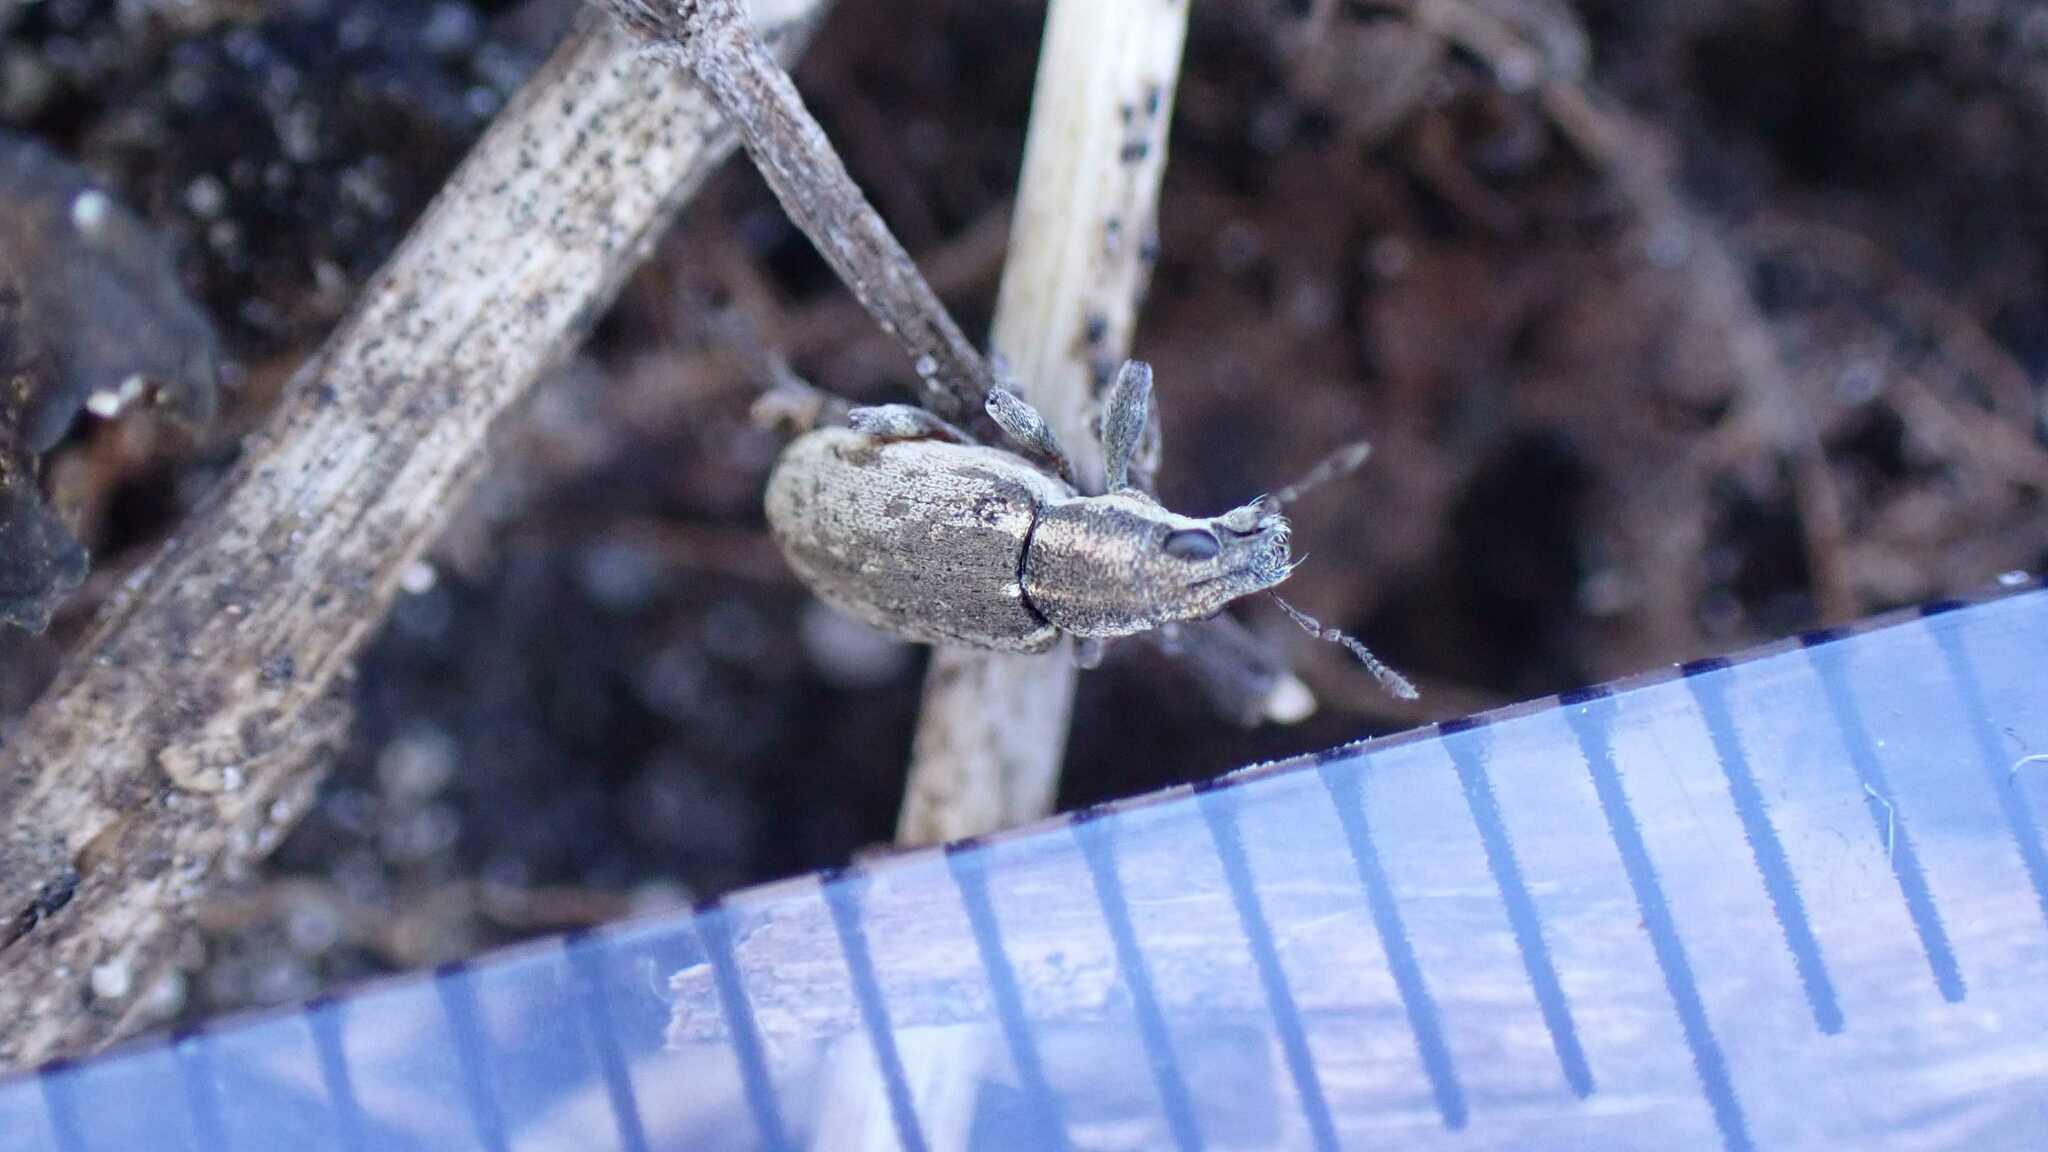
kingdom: Animalia
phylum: Arthropoda
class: Insecta
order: Coleoptera
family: Curculionidae
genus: Sitona
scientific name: Sitona humeralis
